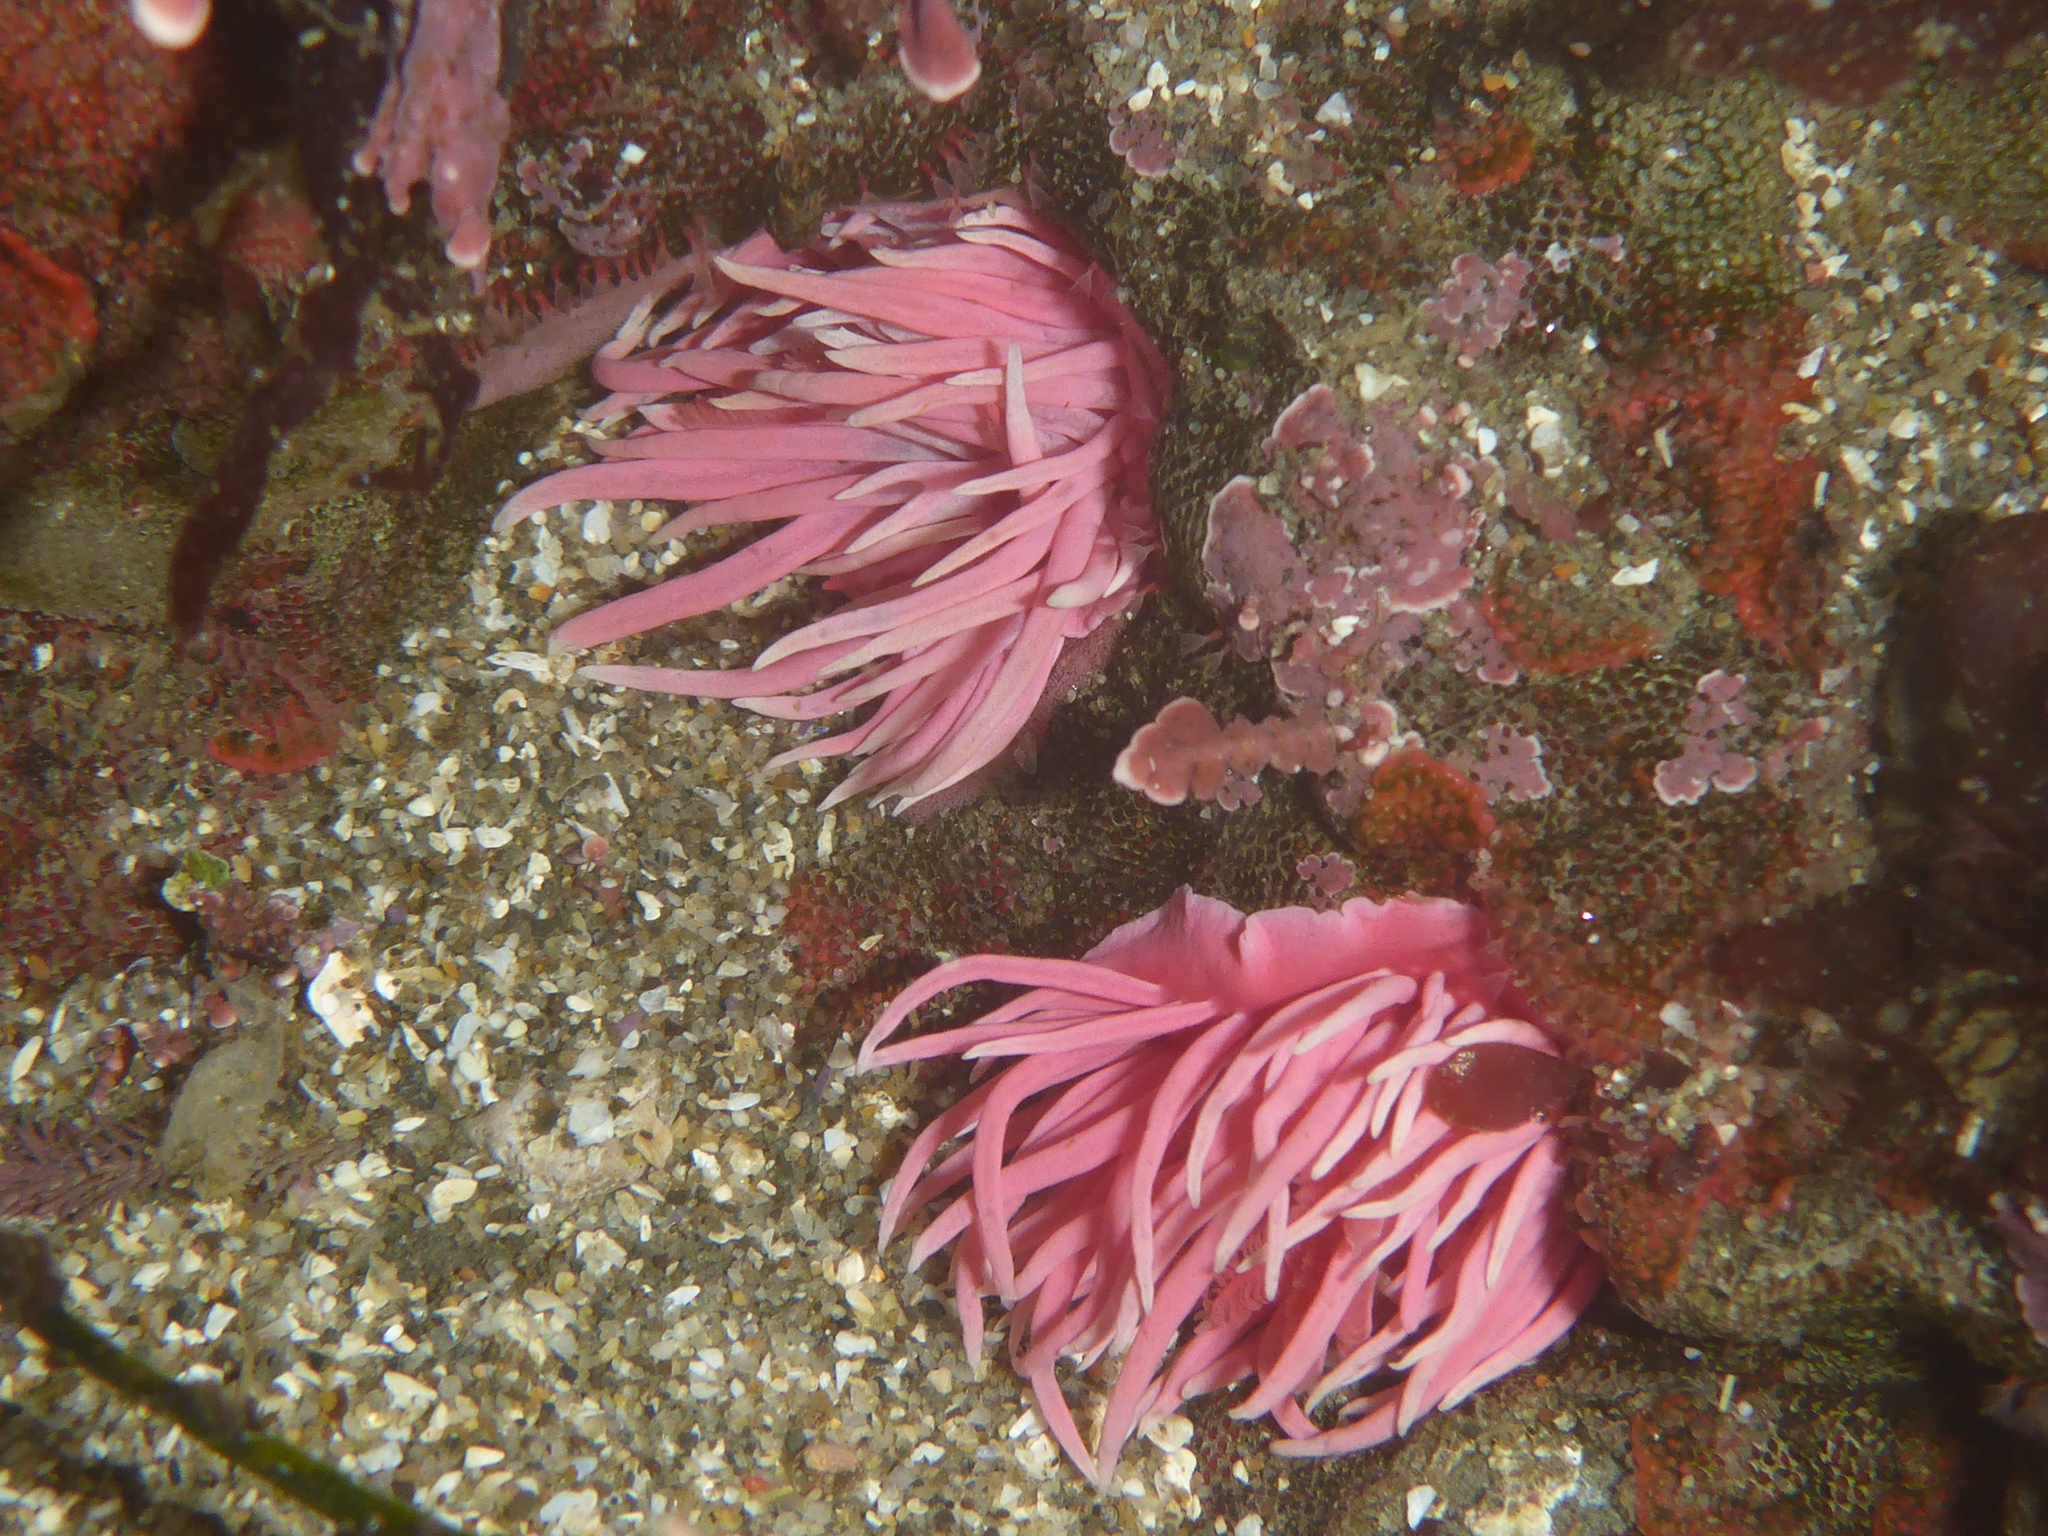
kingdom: Animalia
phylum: Mollusca
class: Gastropoda
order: Nudibranchia
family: Goniodorididae
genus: Okenia
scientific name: Okenia
